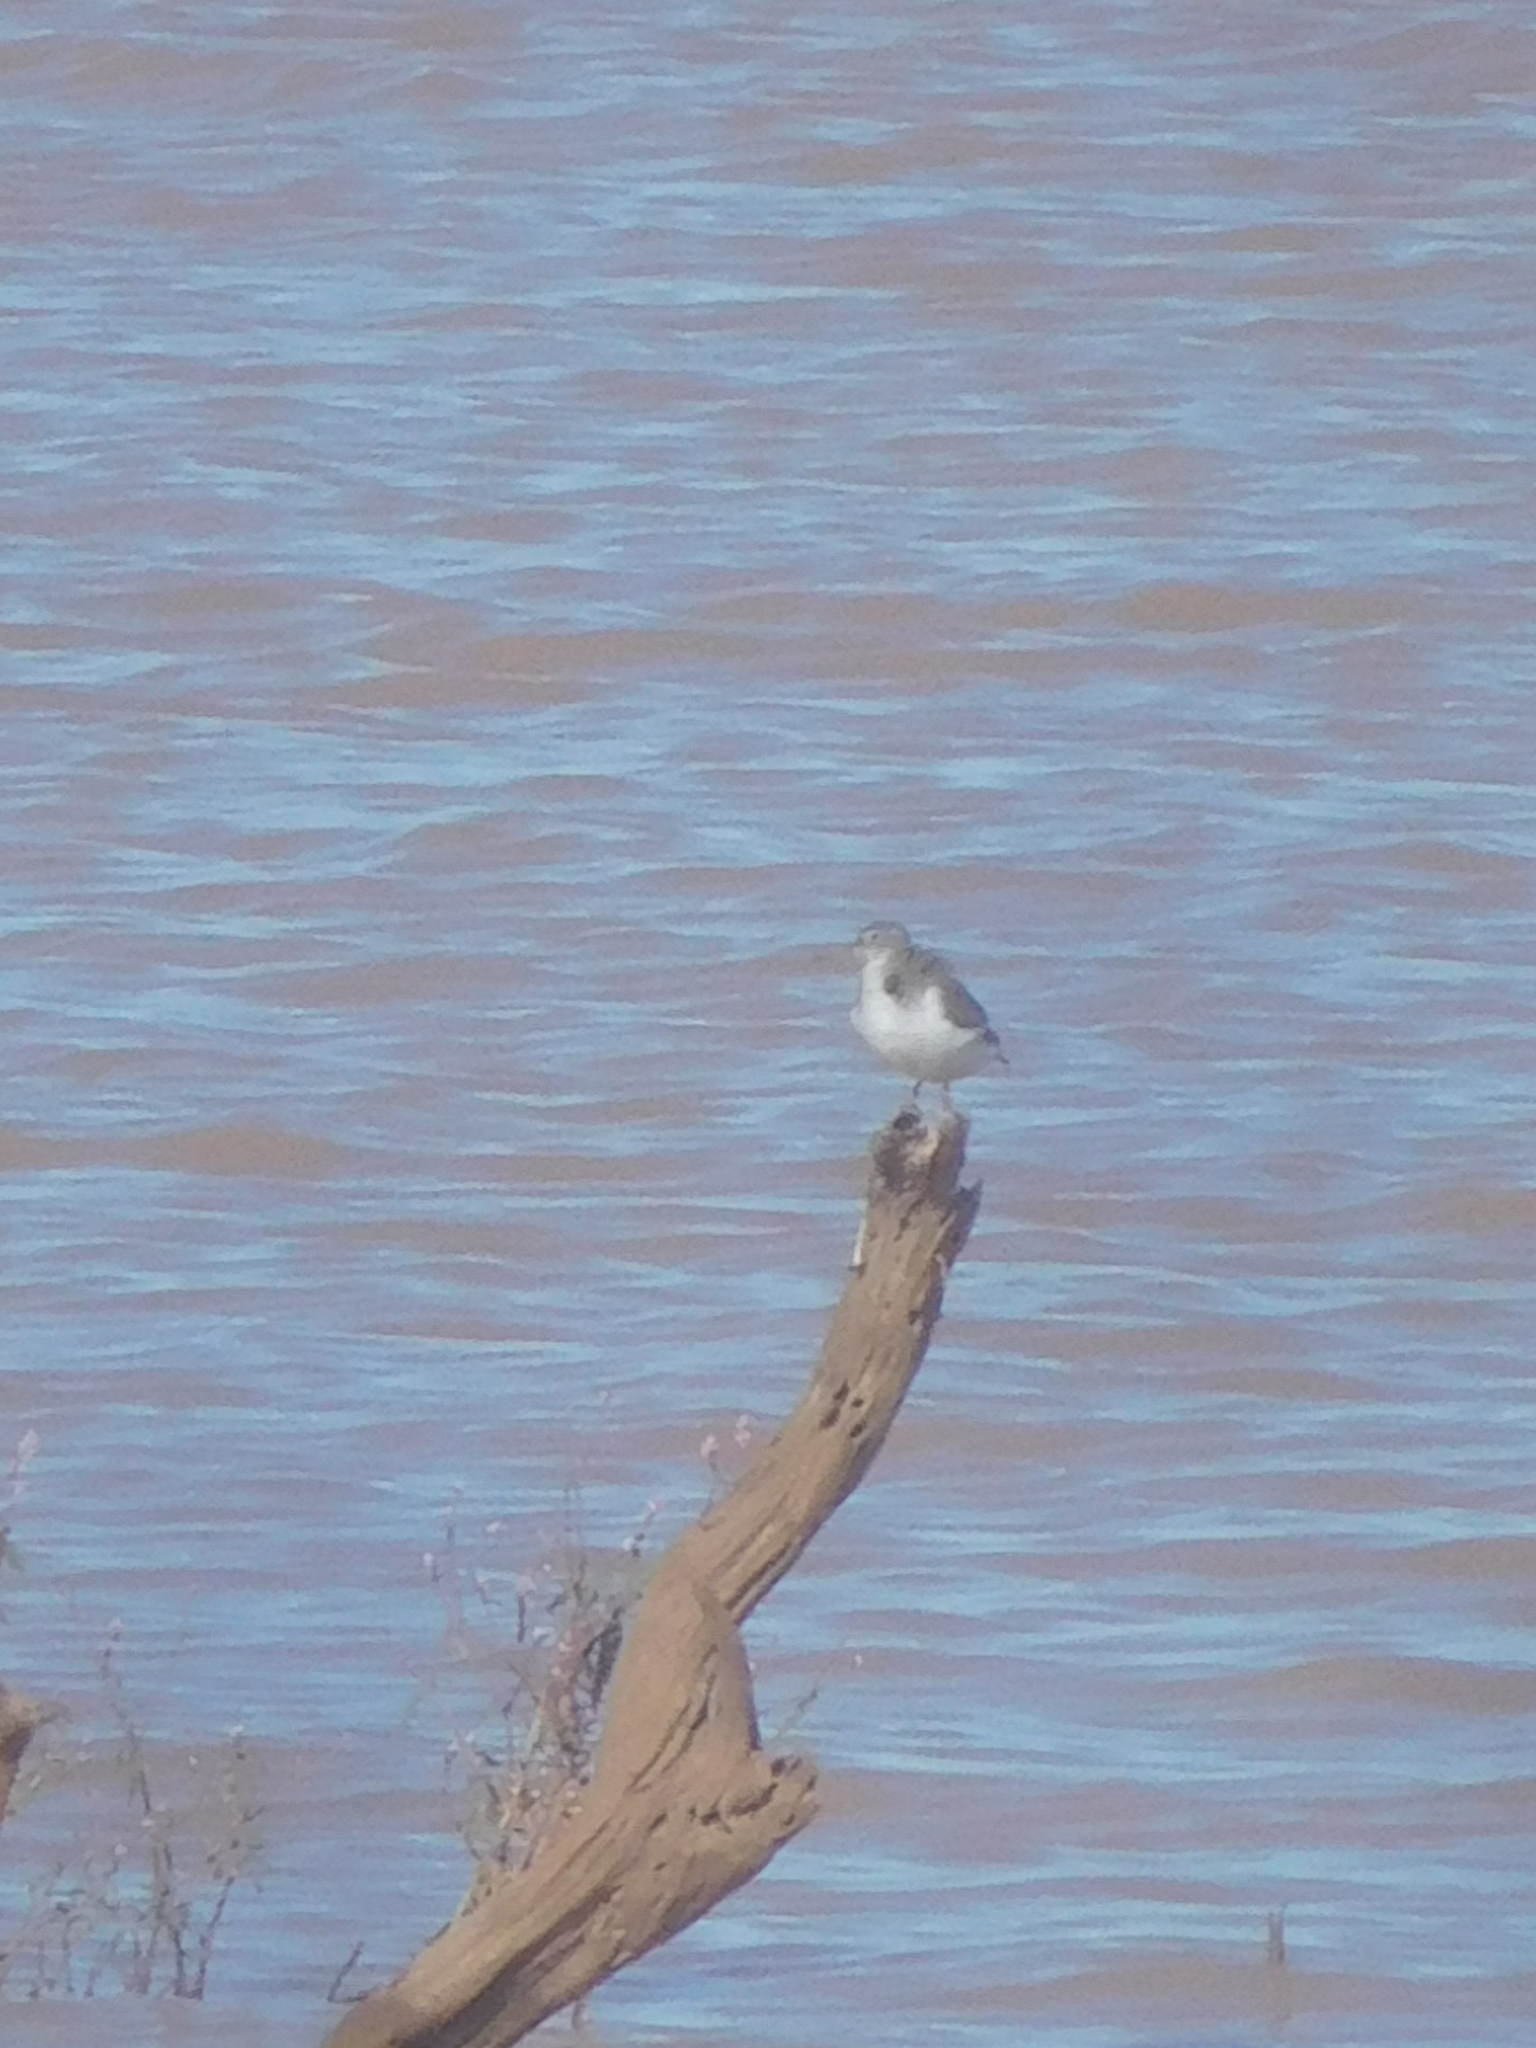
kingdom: Animalia
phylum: Chordata
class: Aves
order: Charadriiformes
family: Scolopacidae
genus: Actitis
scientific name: Actitis macularius
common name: Spotted sandpiper
